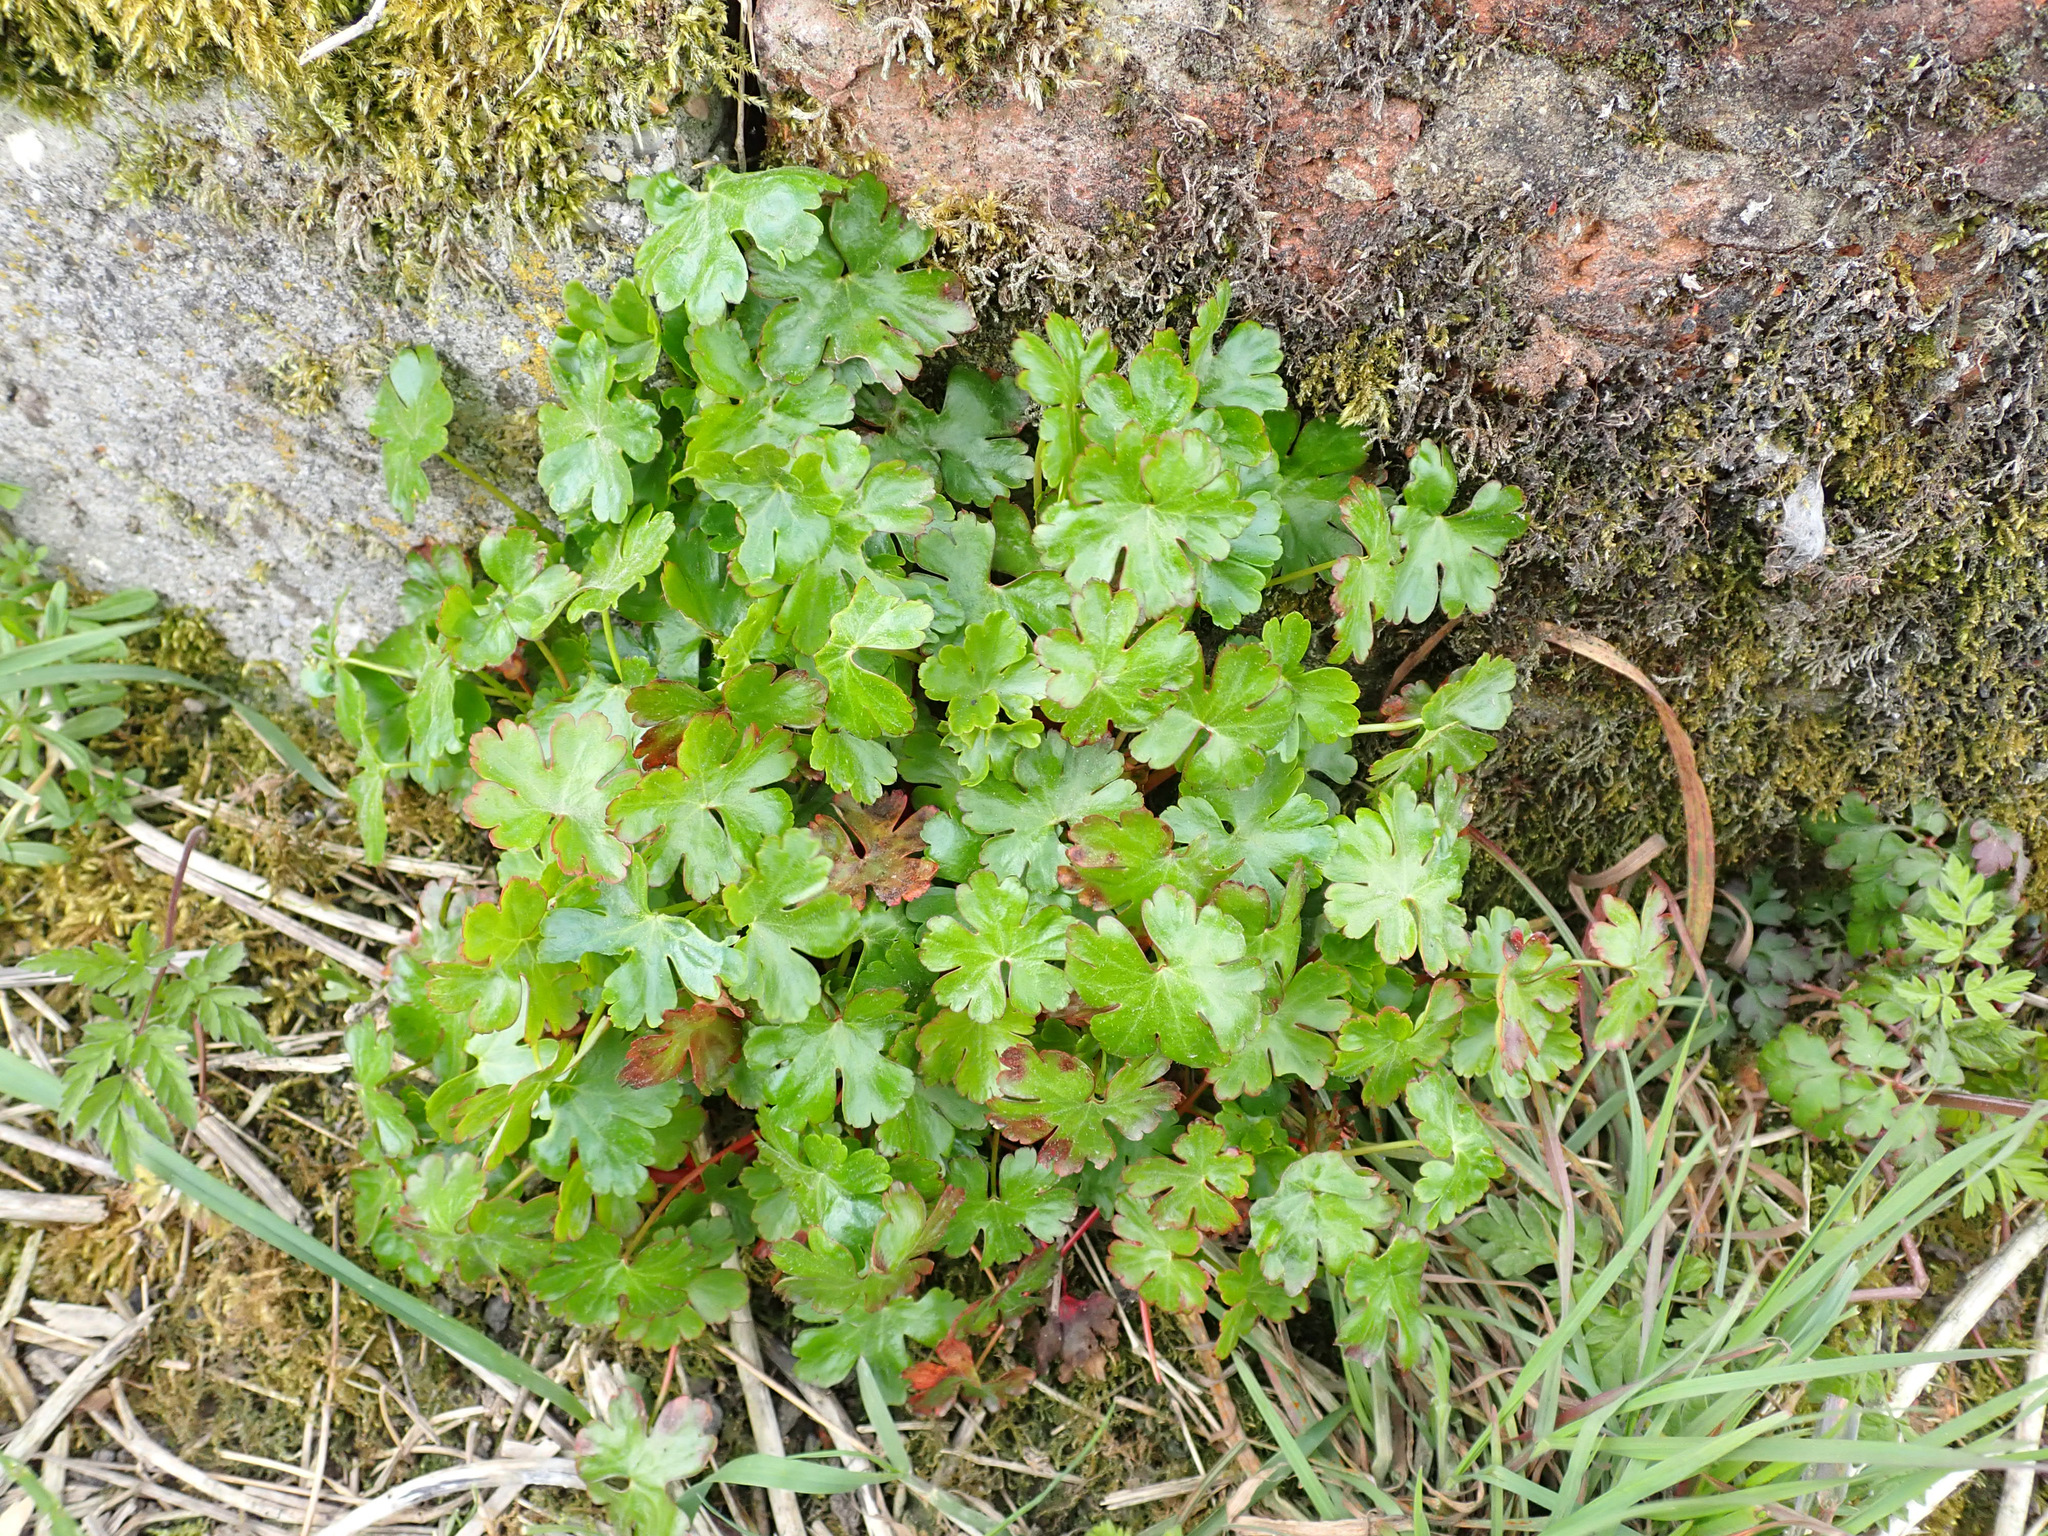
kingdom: Plantae
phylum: Tracheophyta
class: Magnoliopsida
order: Geraniales
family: Geraniaceae
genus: Geranium
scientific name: Geranium lucidum
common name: Shining crane's-bill
